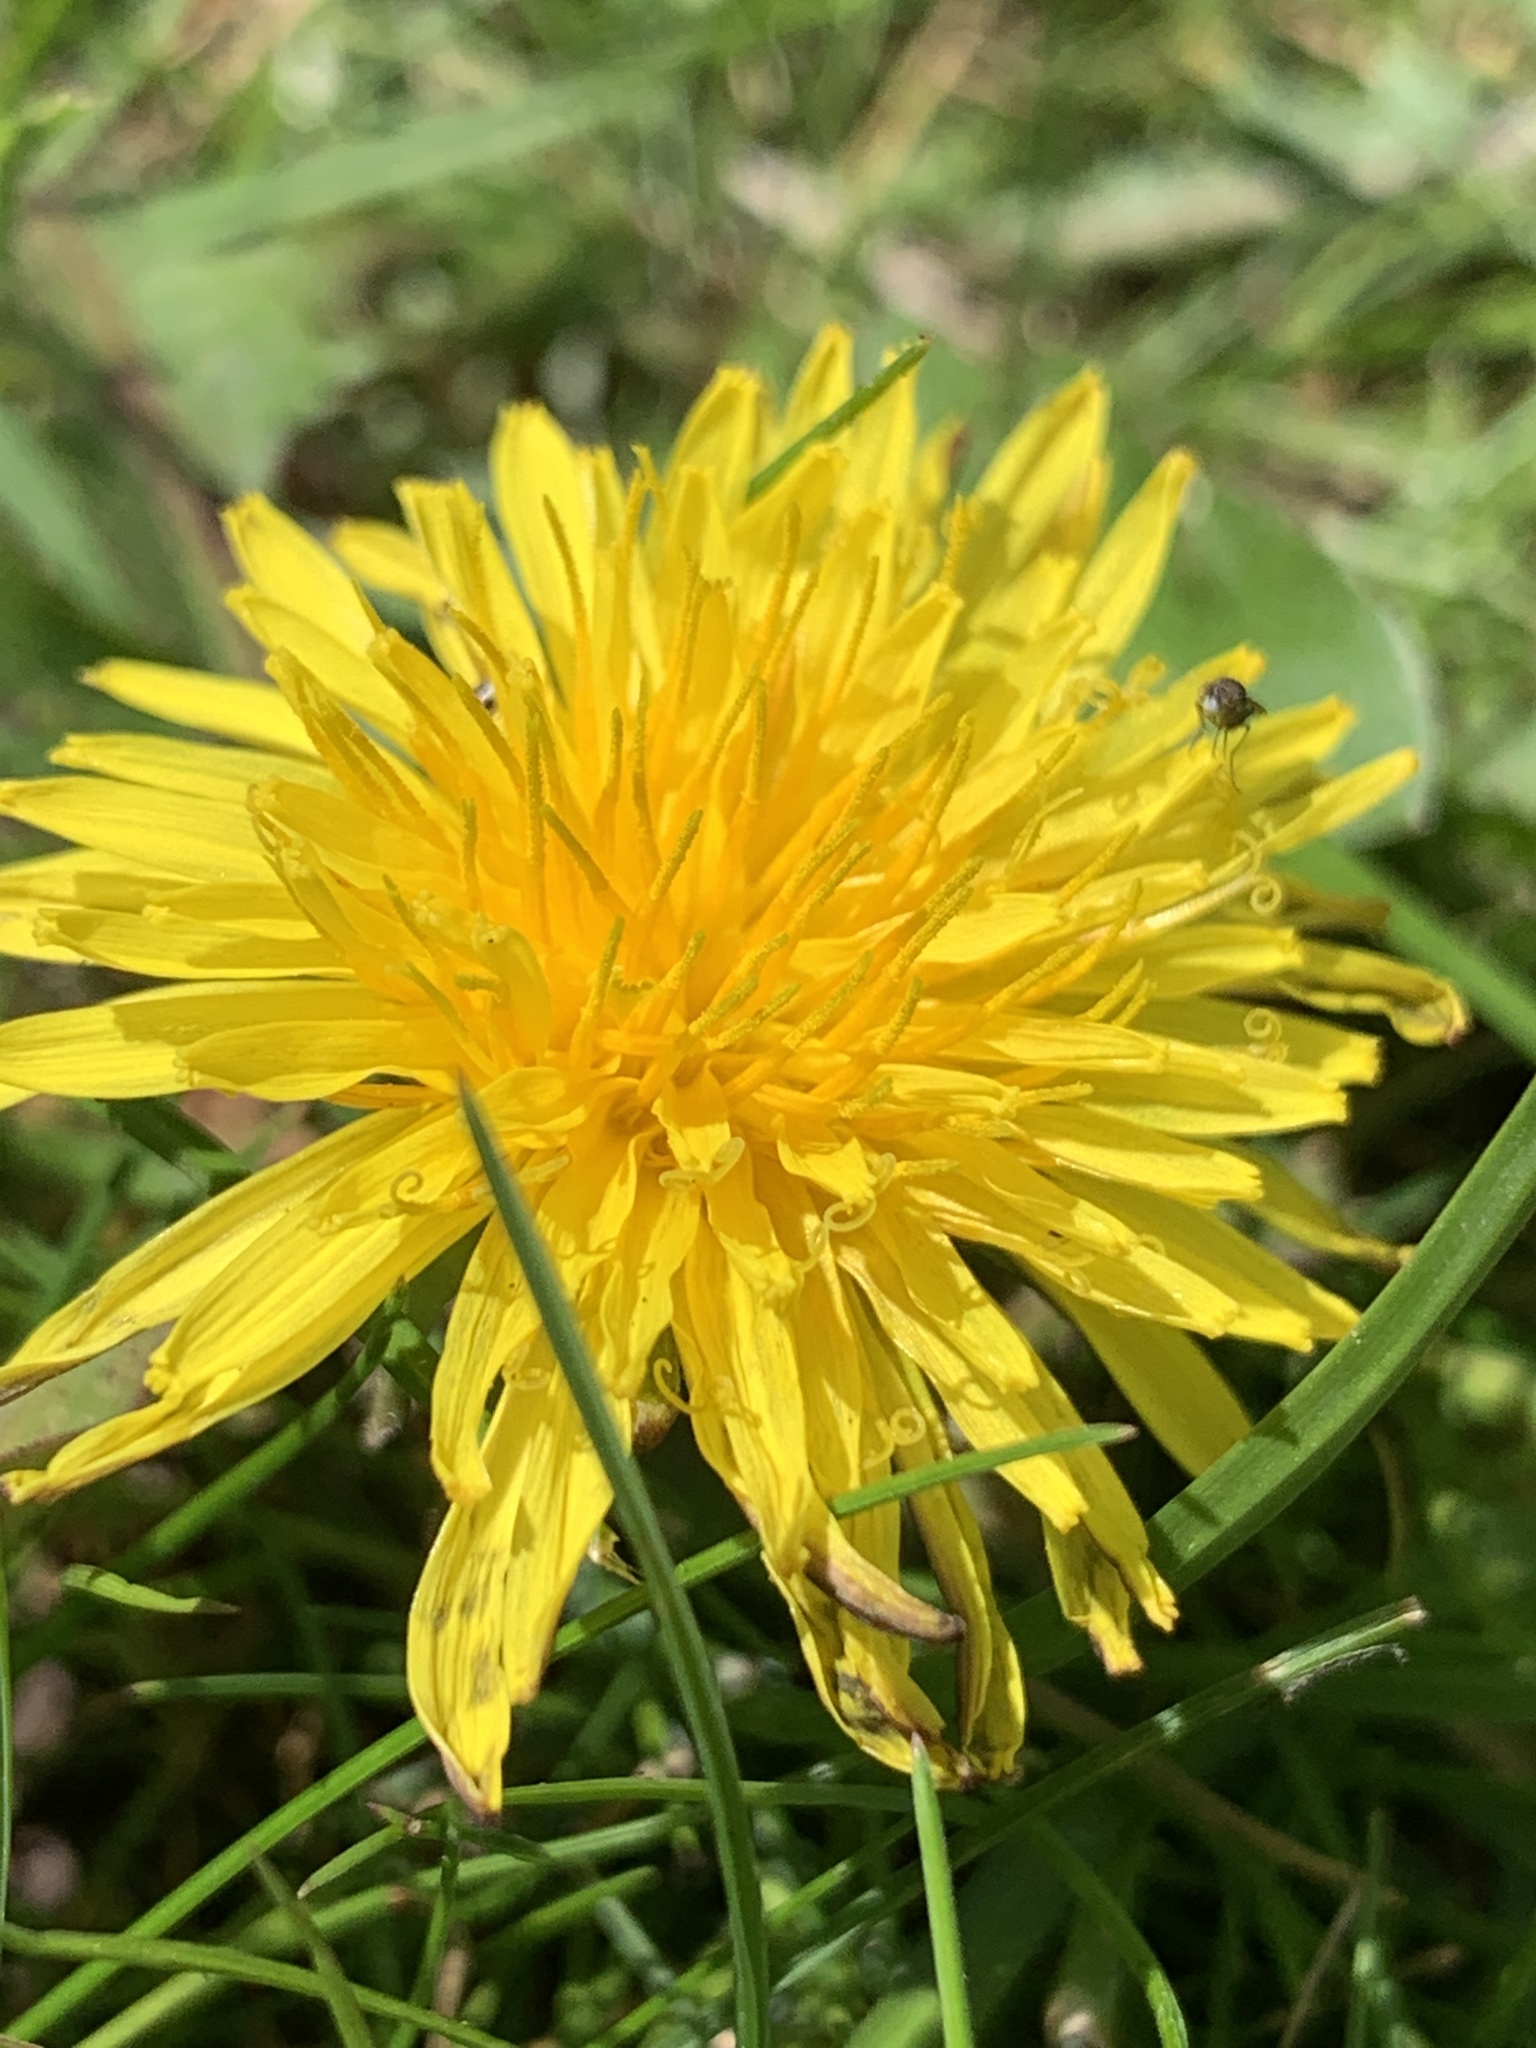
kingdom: Plantae
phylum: Tracheophyta
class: Magnoliopsida
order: Asterales
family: Asteraceae
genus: Taraxacum
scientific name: Taraxacum officinale
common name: Common dandelion
